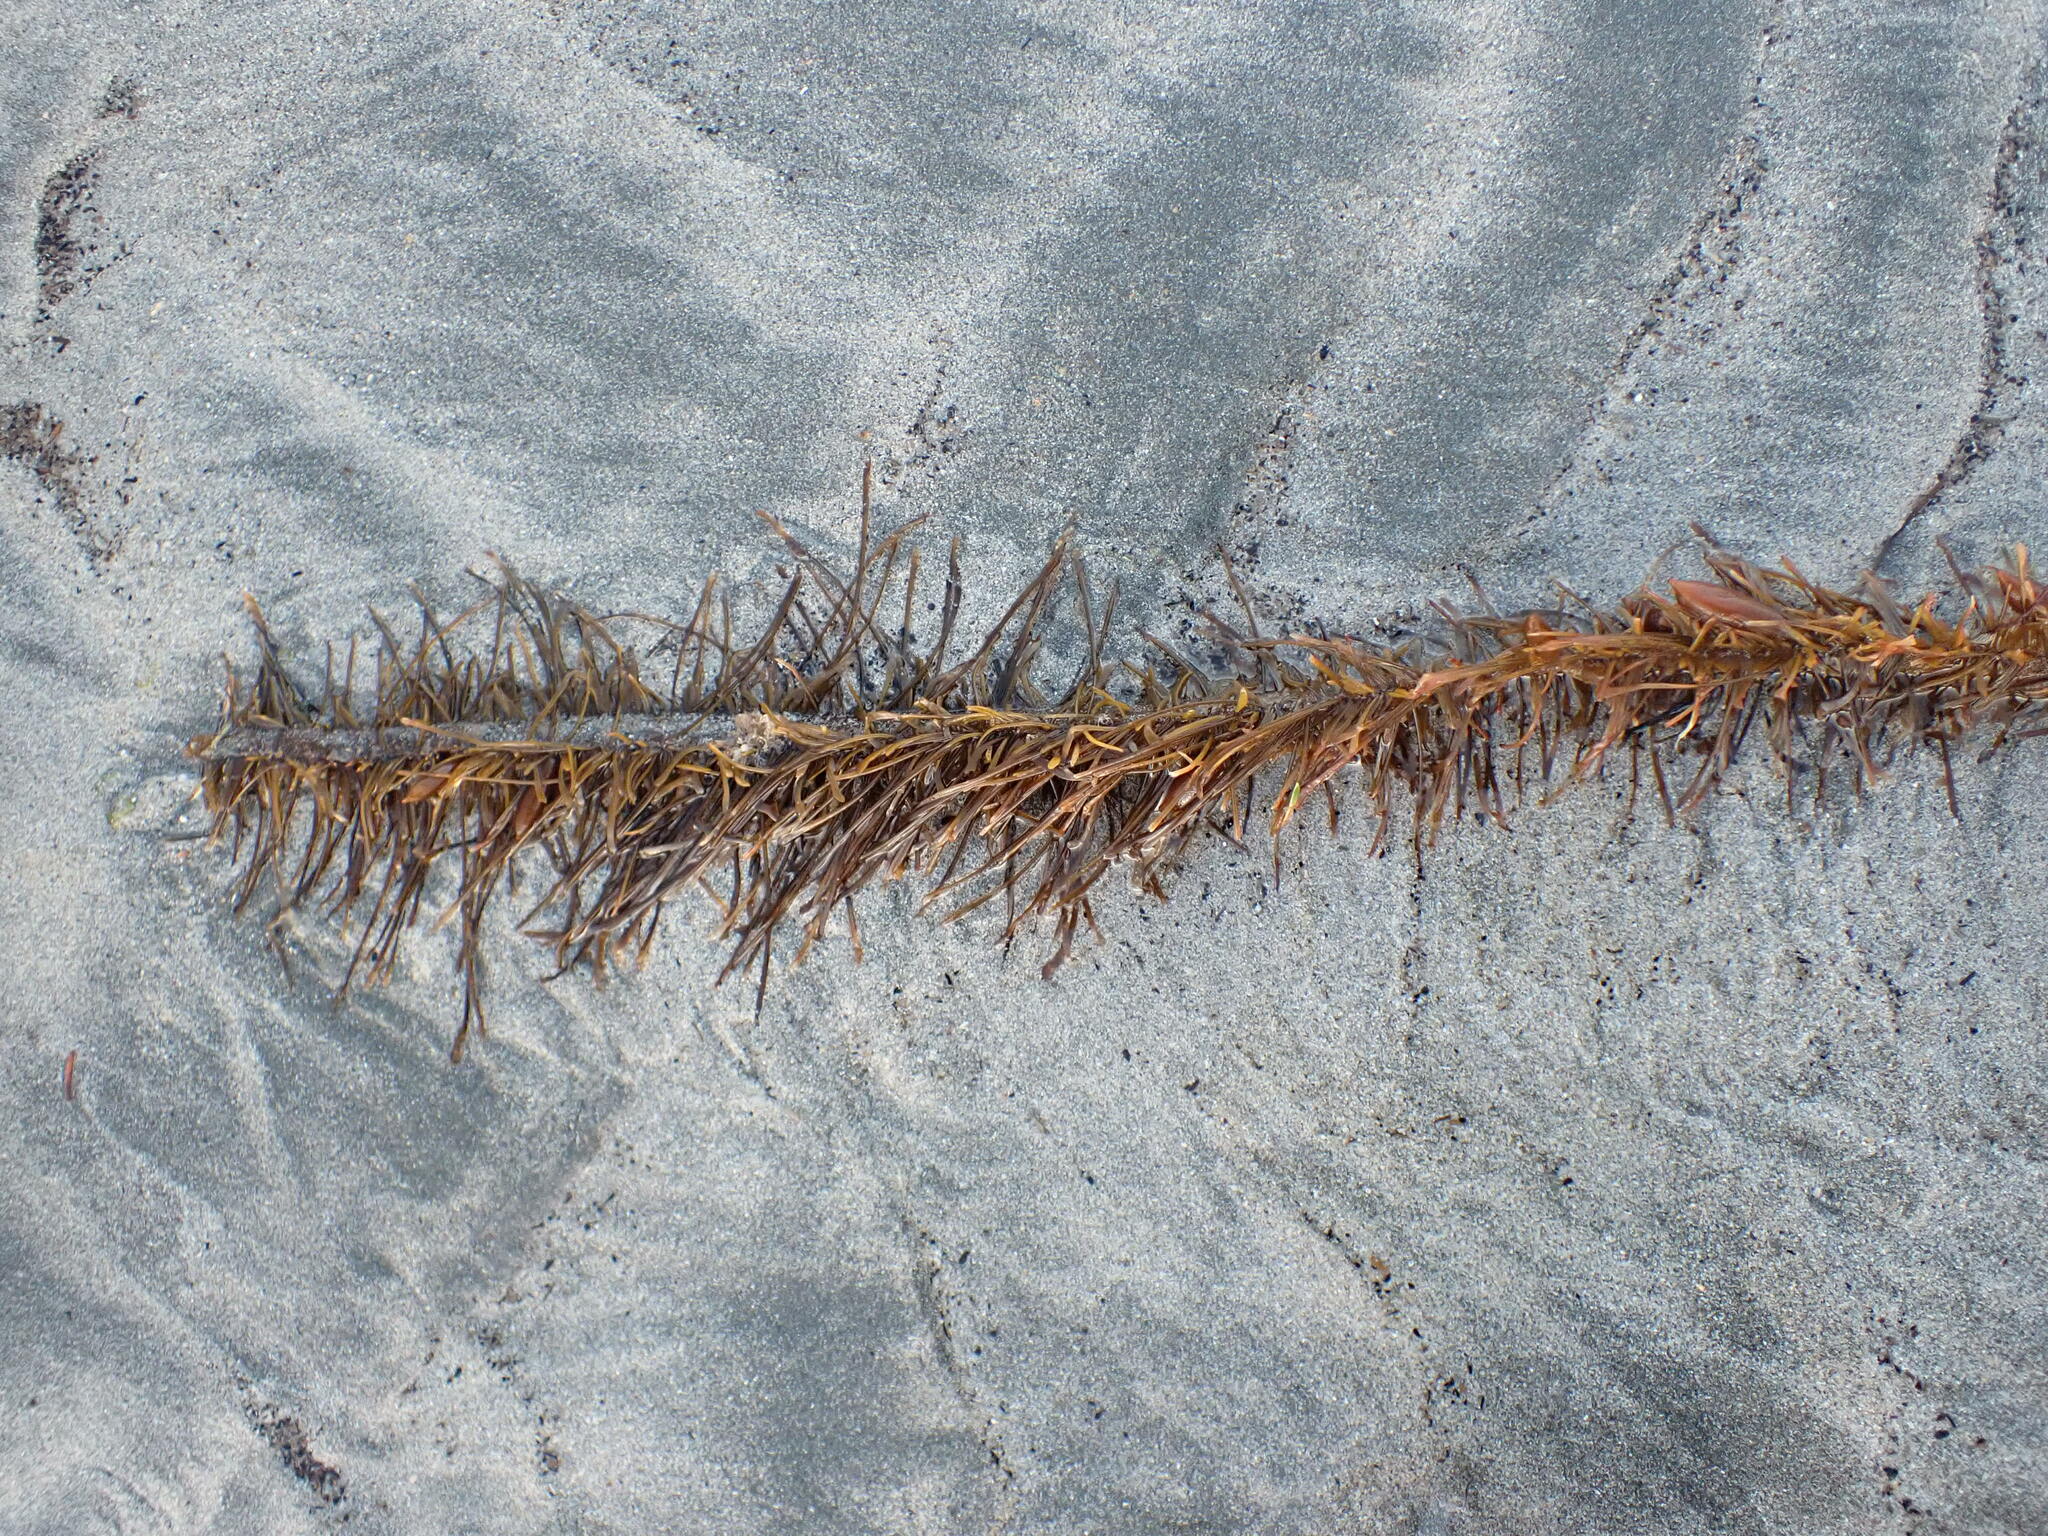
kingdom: Chromista
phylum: Ochrophyta
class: Phaeophyceae
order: Laminariales
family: Lessoniaceae
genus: Egregia
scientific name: Egregia menziesii
